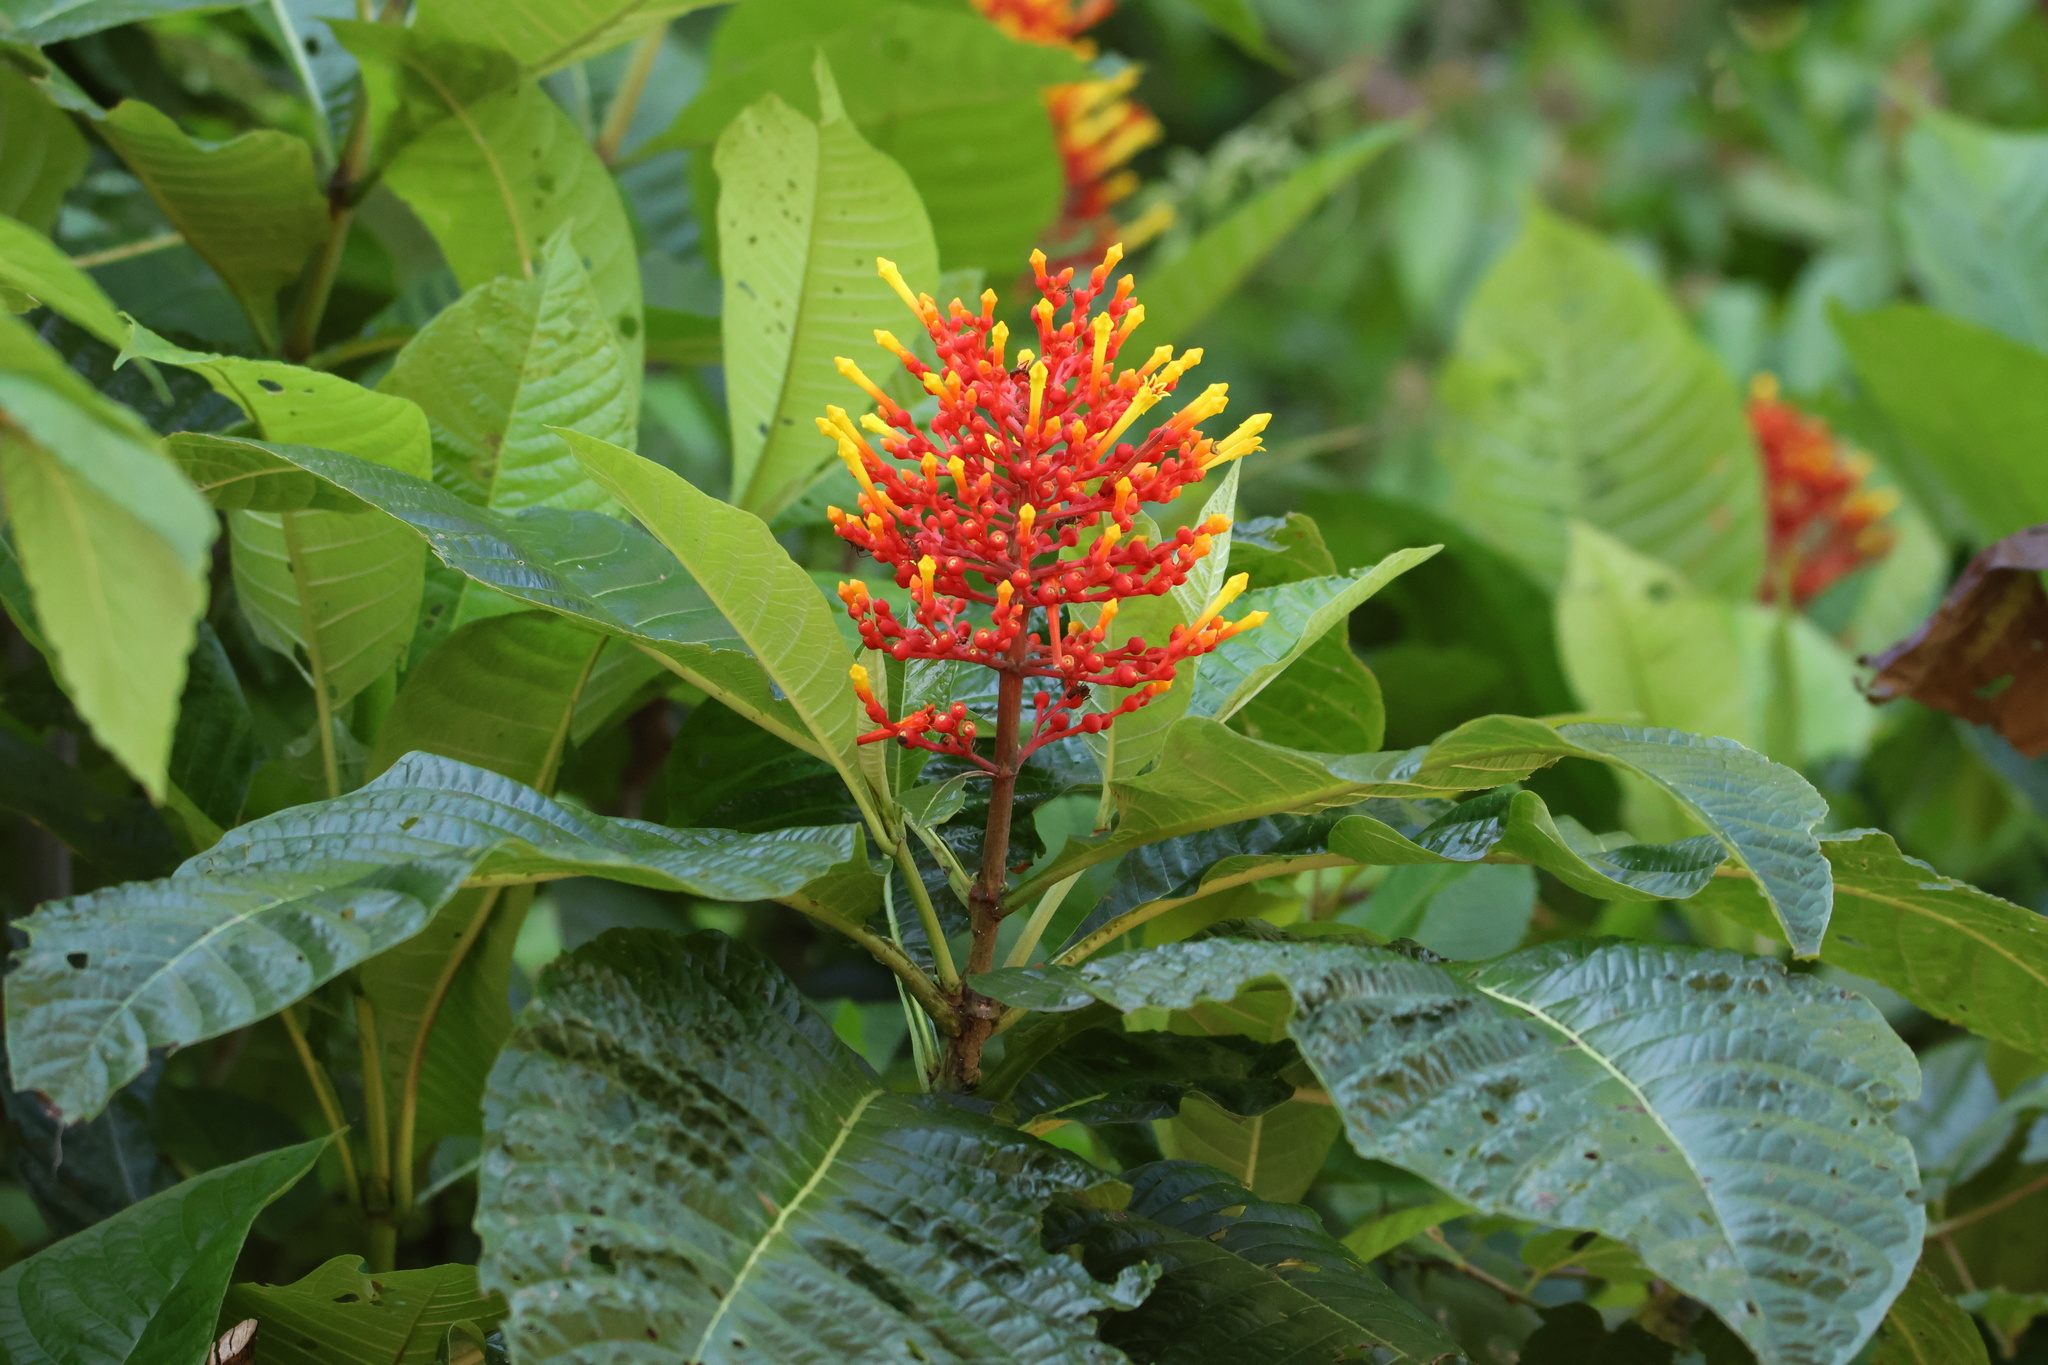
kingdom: Plantae
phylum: Tracheophyta
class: Magnoliopsida
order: Gentianales
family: Rubiaceae
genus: Isertia
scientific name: Isertia haenkeana
